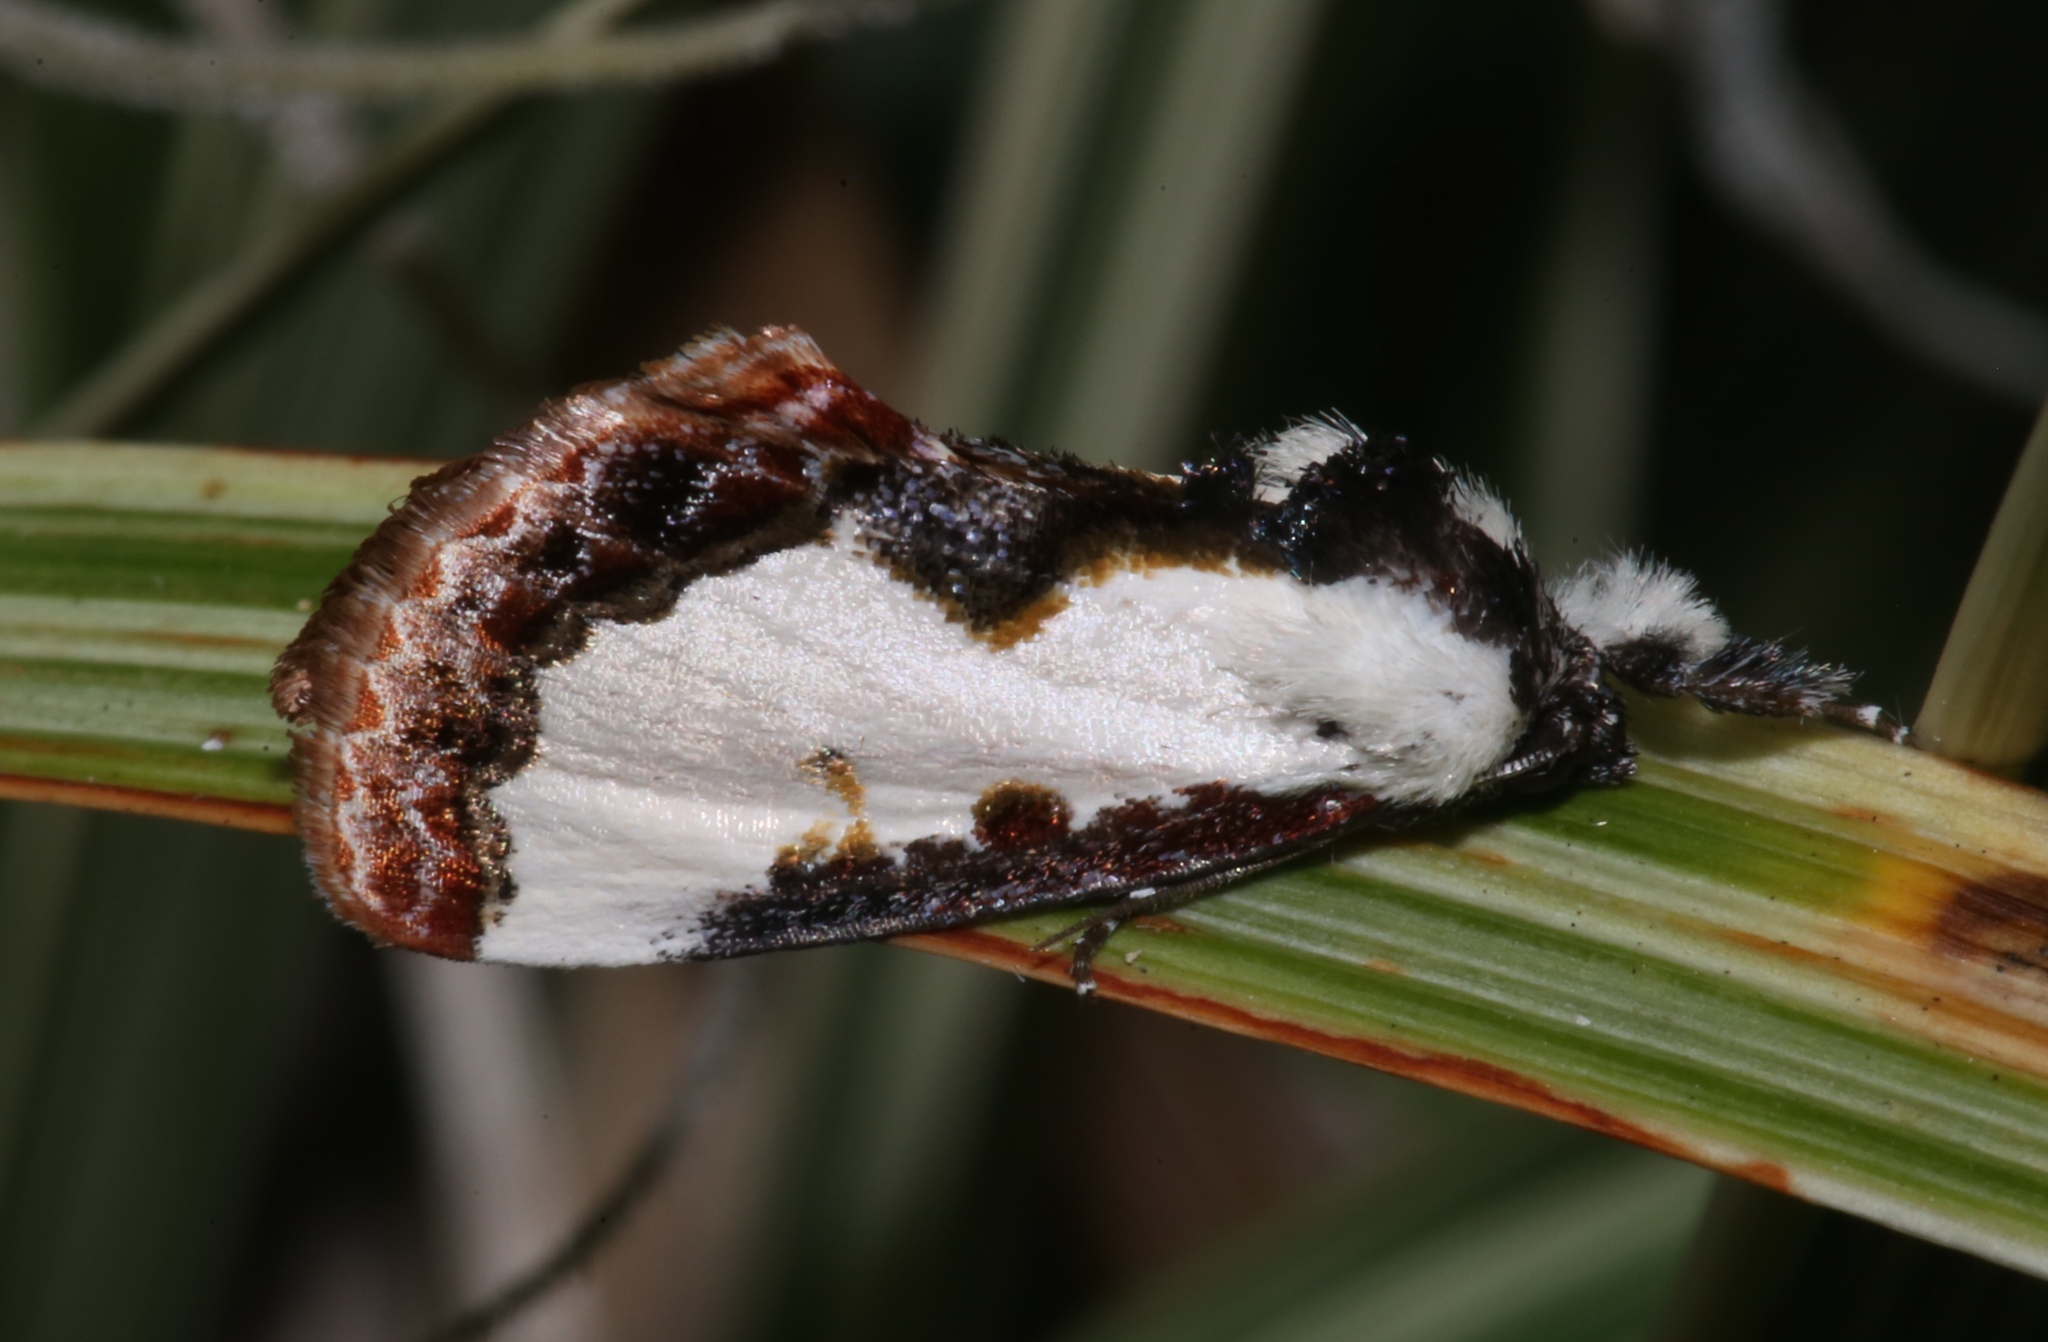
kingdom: Animalia
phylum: Arthropoda
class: Insecta
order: Lepidoptera
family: Noctuidae
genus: Eudryas
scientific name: Eudryas unio
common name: Pearly wood-nymph
